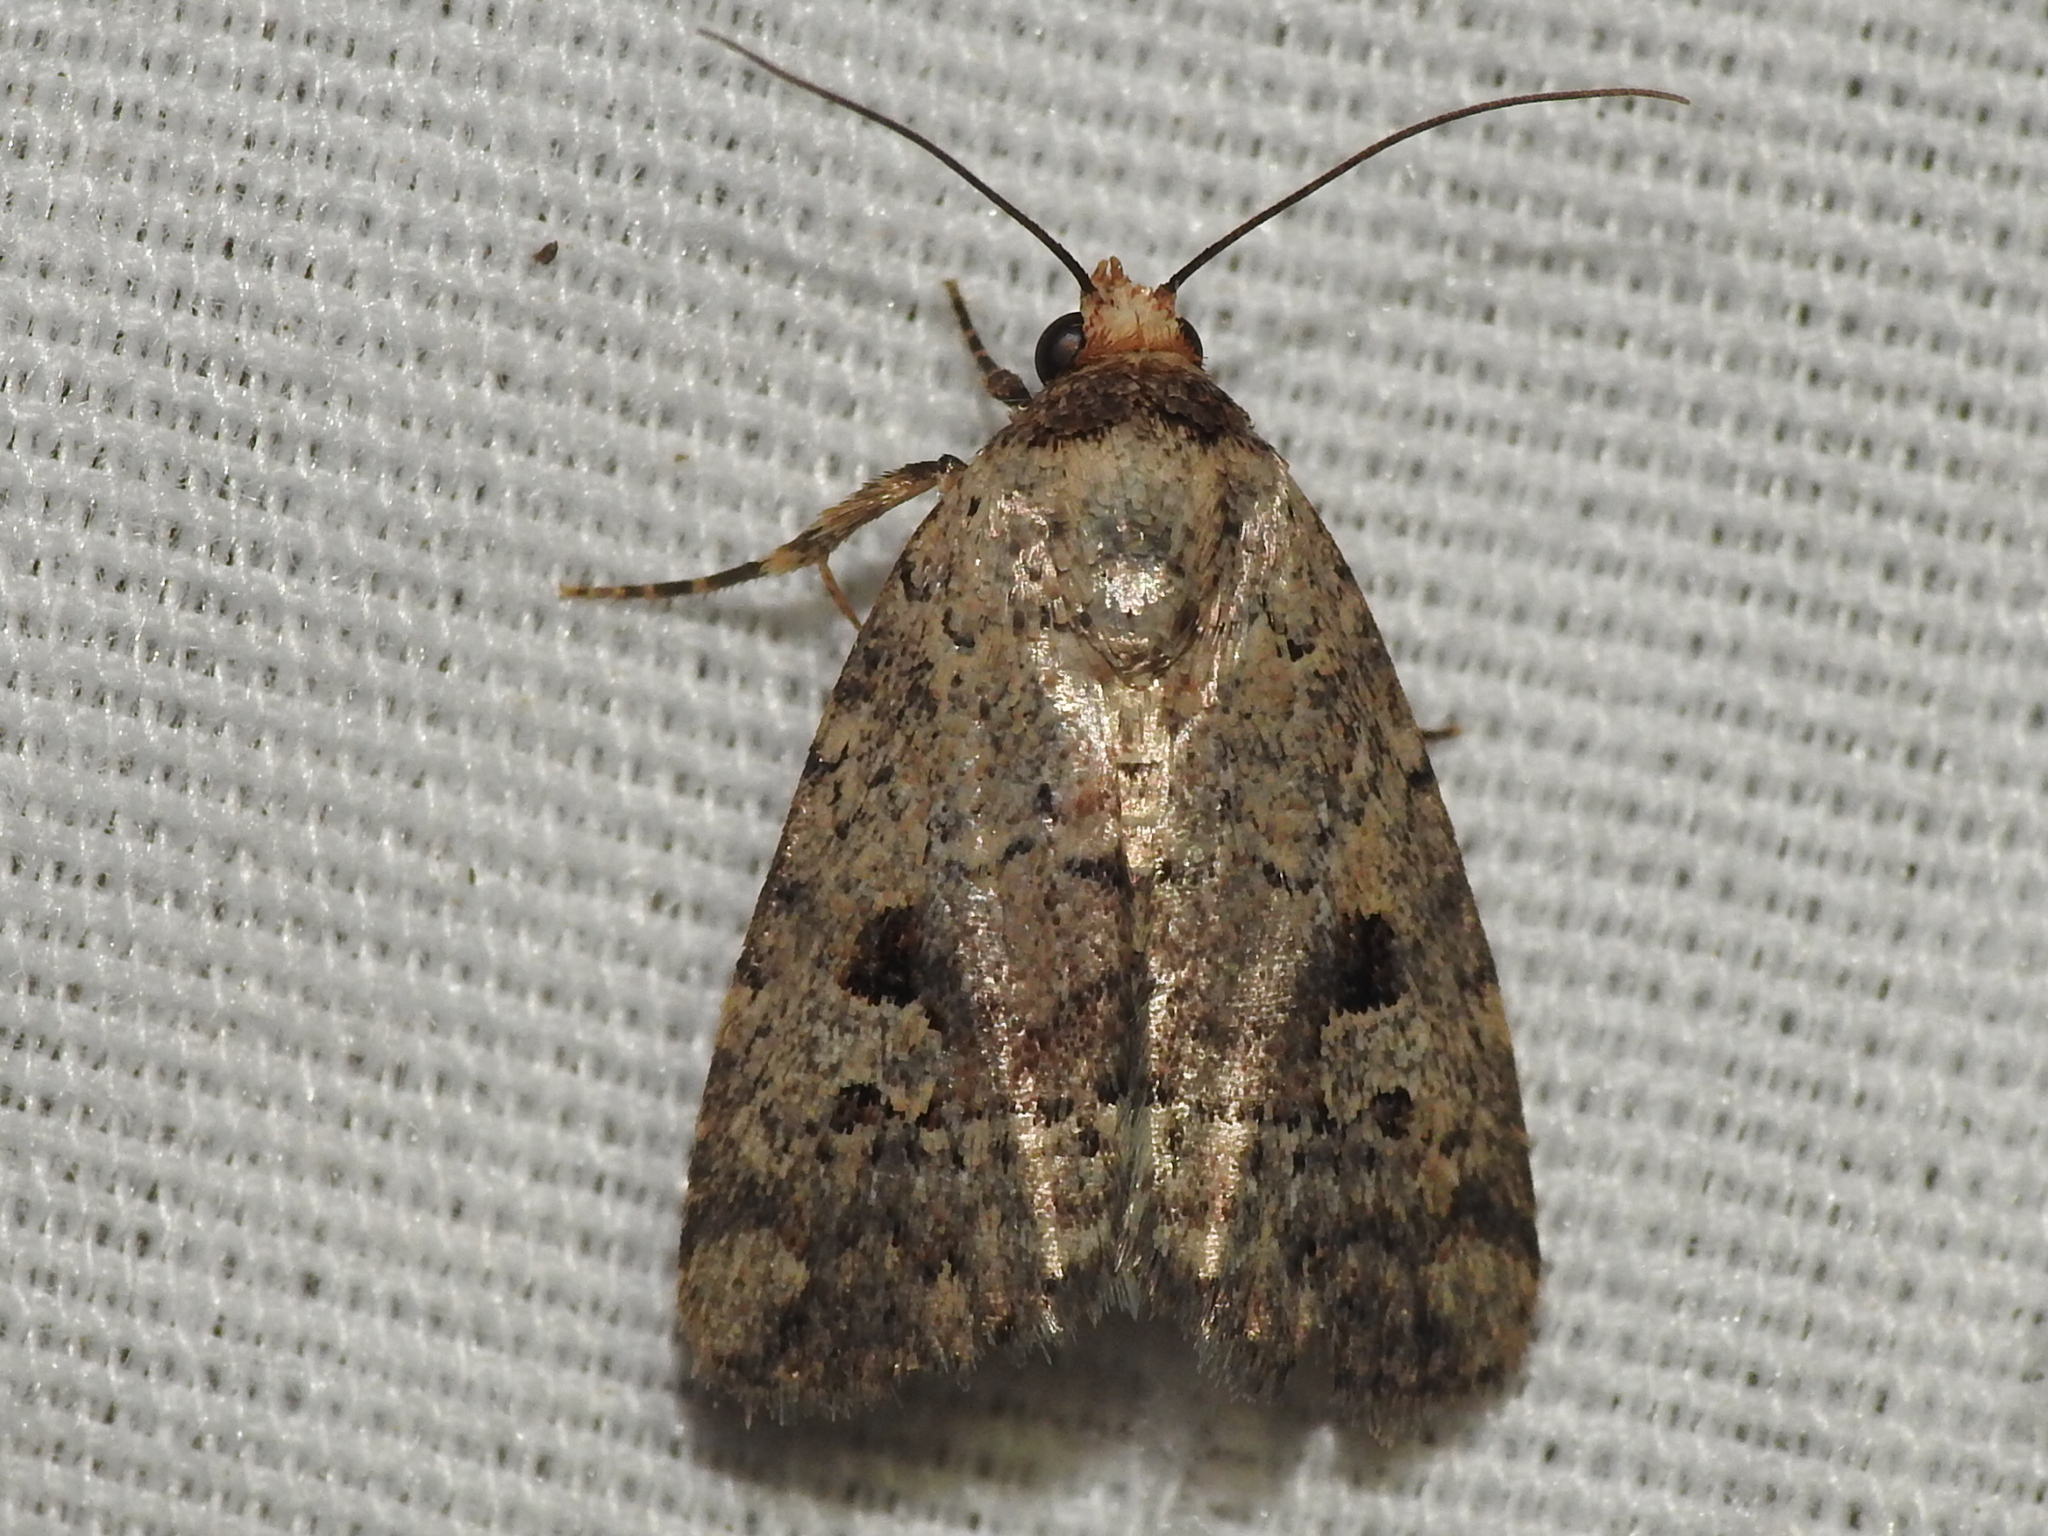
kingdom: Animalia
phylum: Arthropoda
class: Insecta
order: Lepidoptera
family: Noctuidae
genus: Elaphria
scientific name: Elaphria festivoides
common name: Festive midget
